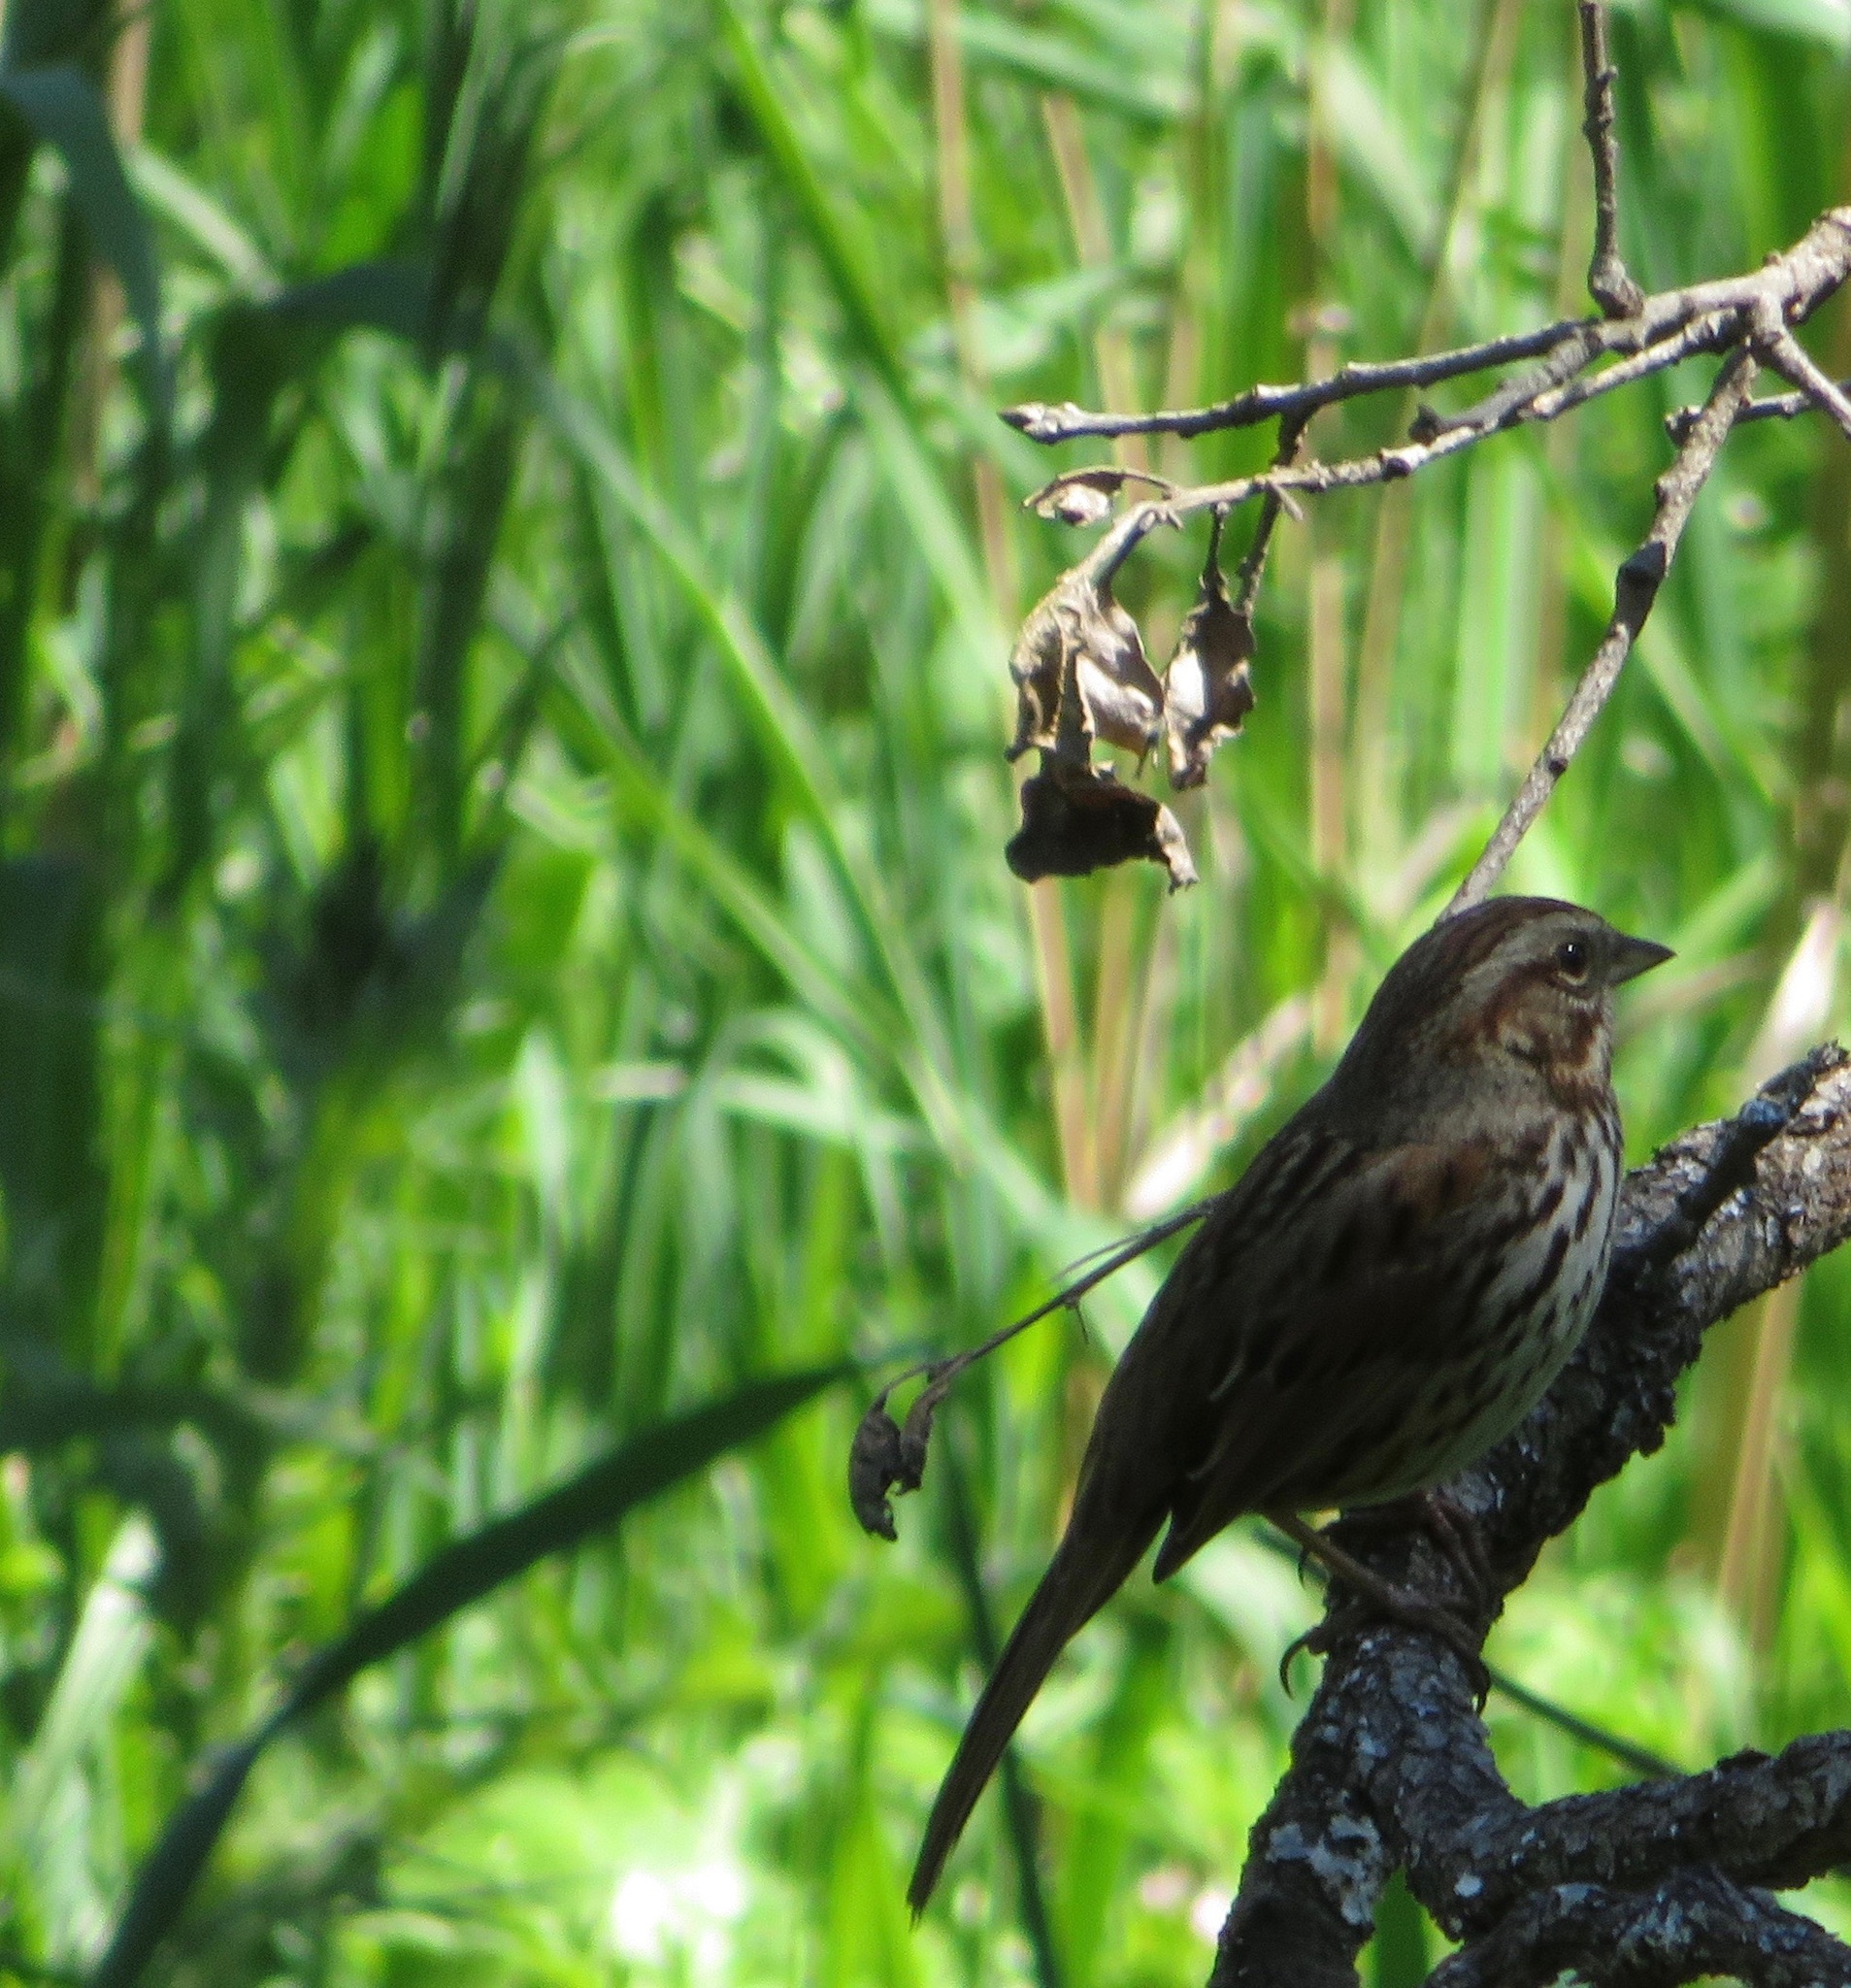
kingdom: Animalia
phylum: Chordata
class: Aves
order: Passeriformes
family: Passerellidae
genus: Melospiza
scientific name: Melospiza melodia
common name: Song sparrow
